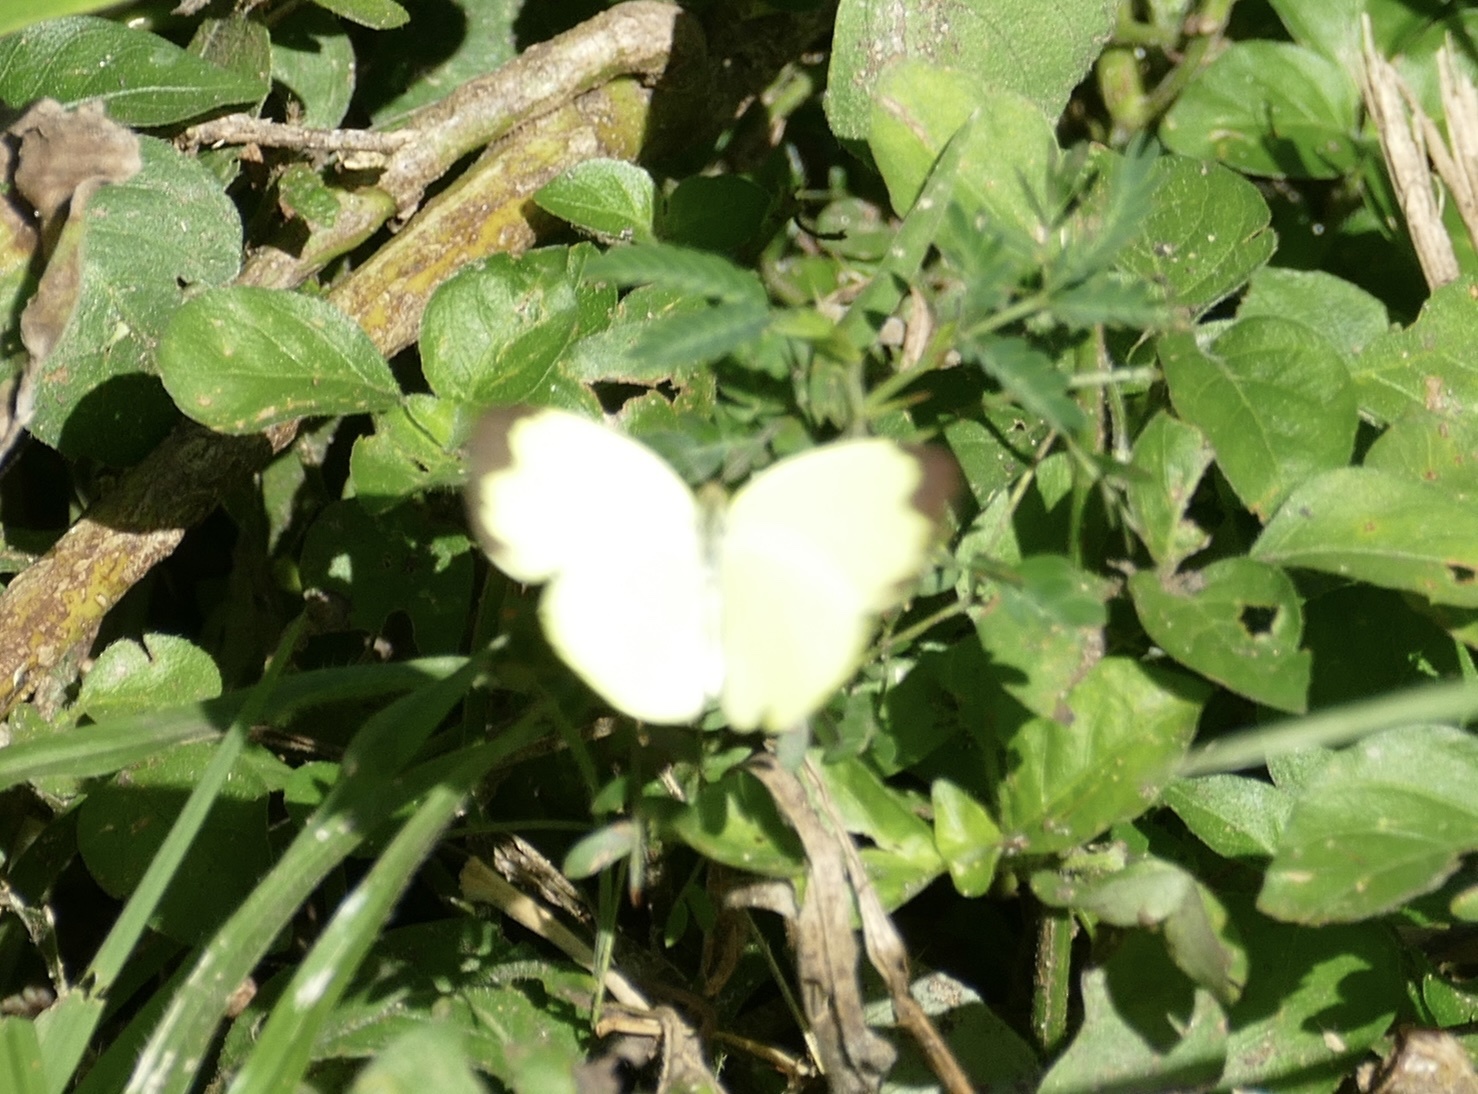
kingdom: Animalia
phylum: Arthropoda
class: Insecta
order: Lepidoptera
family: Pieridae
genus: Eurema
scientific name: Eurema hecabe
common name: Pale grass yellow
